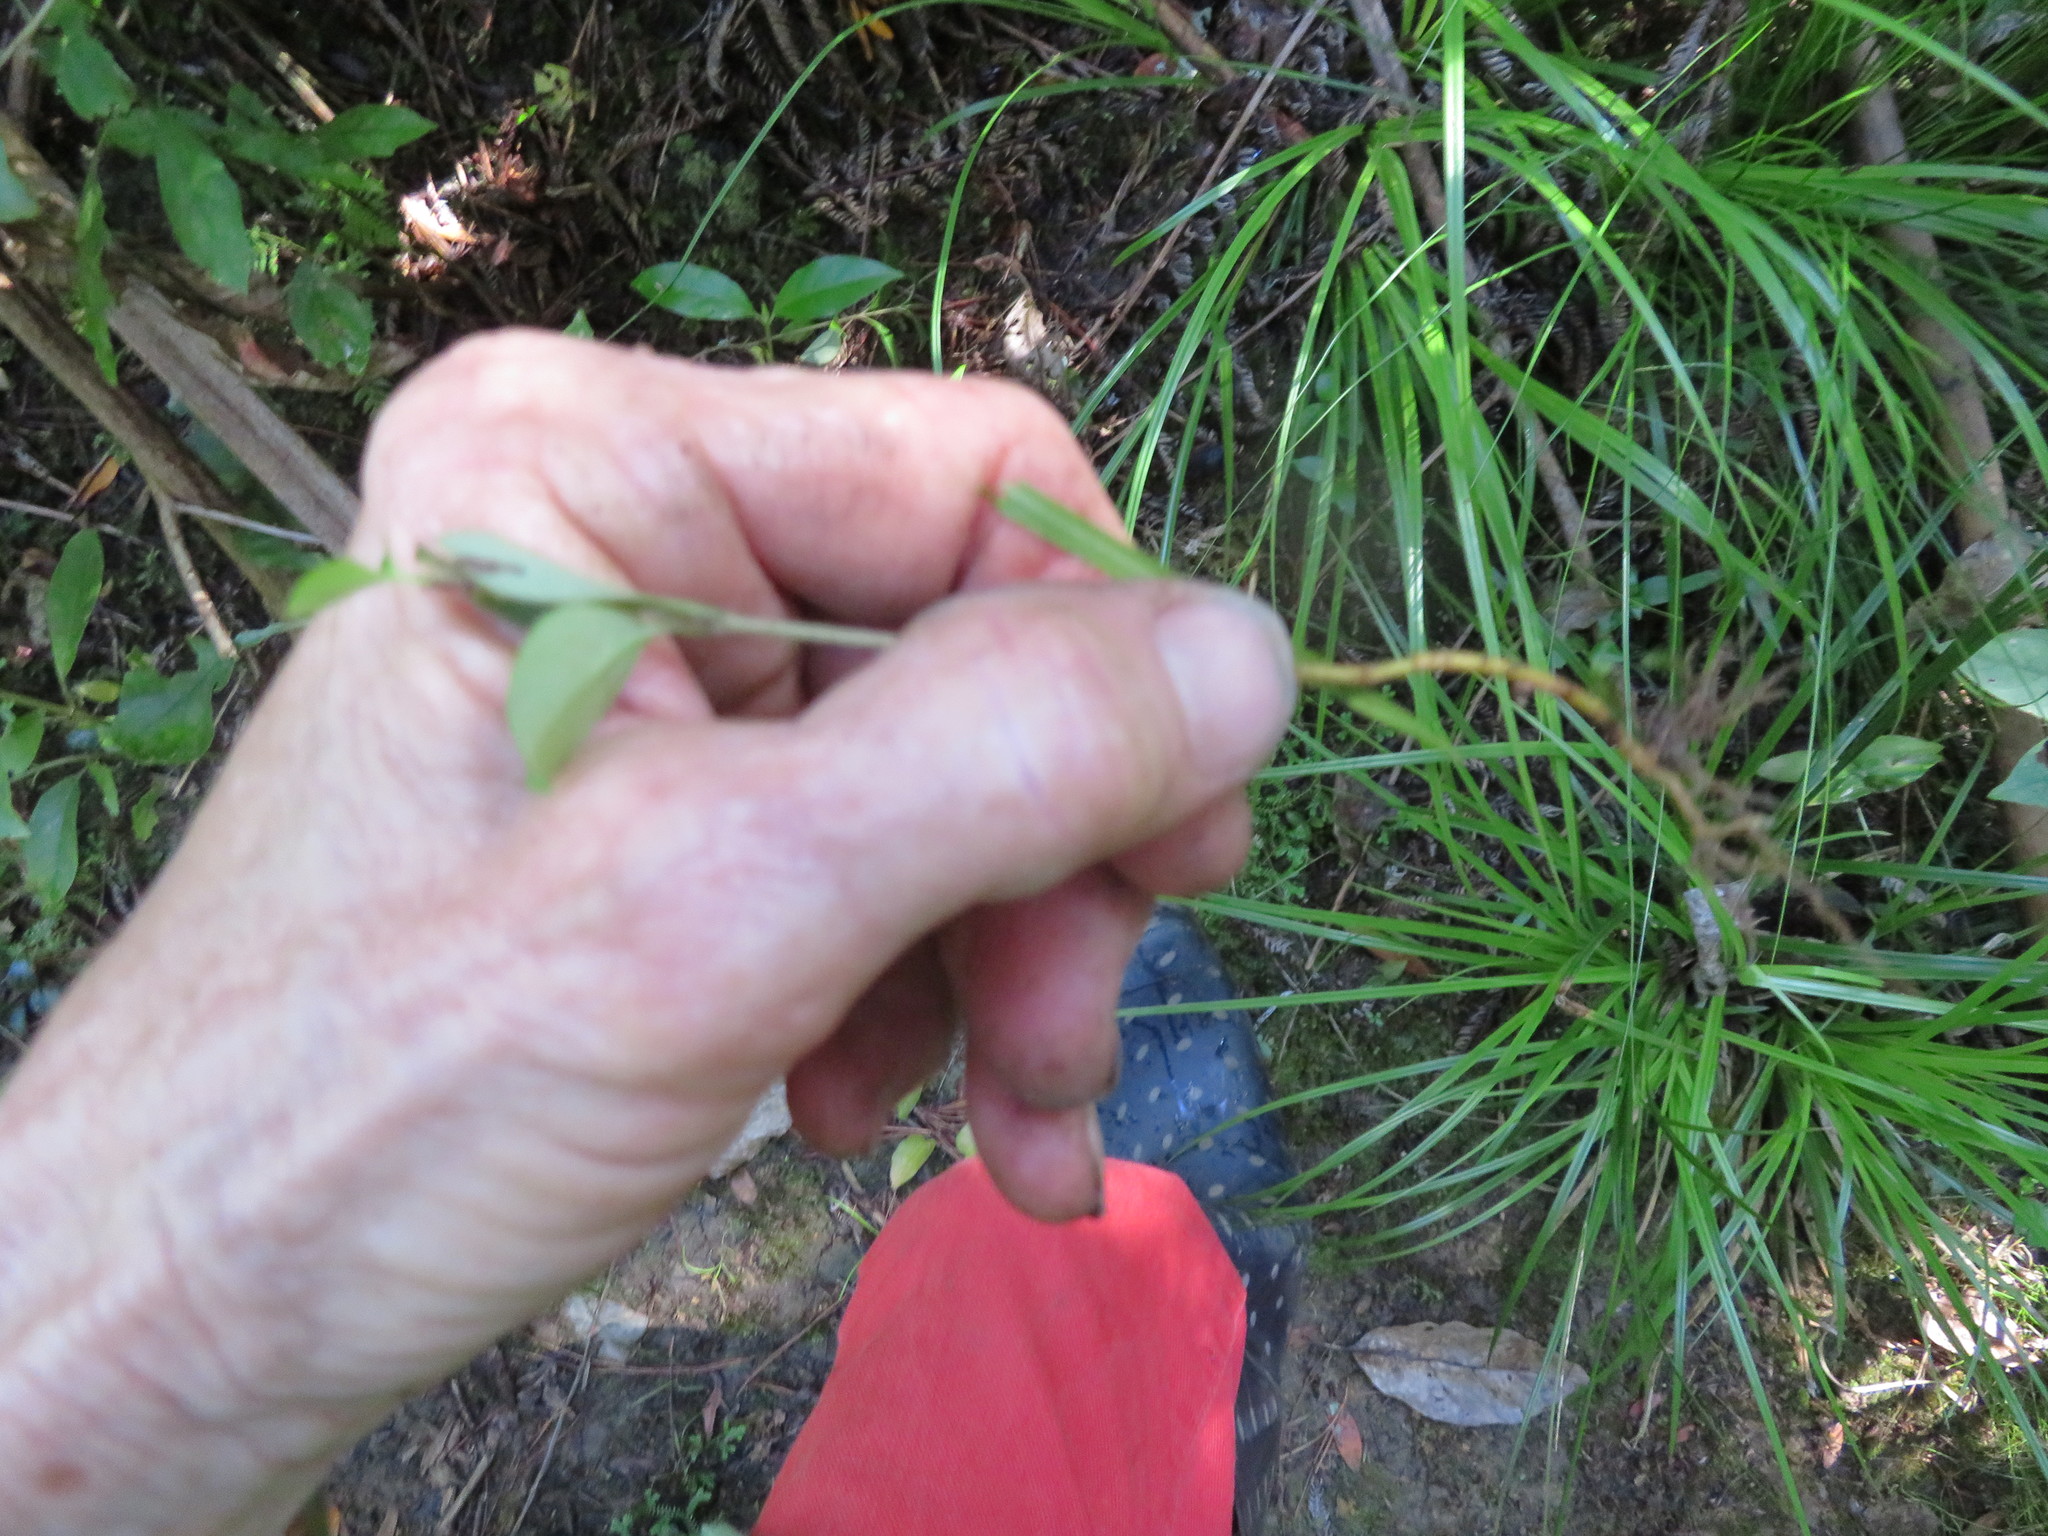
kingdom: Plantae
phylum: Tracheophyta
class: Magnoliopsida
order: Lamiales
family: Oleaceae
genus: Ligustrum
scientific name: Ligustrum lucidum
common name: Glossy privet
